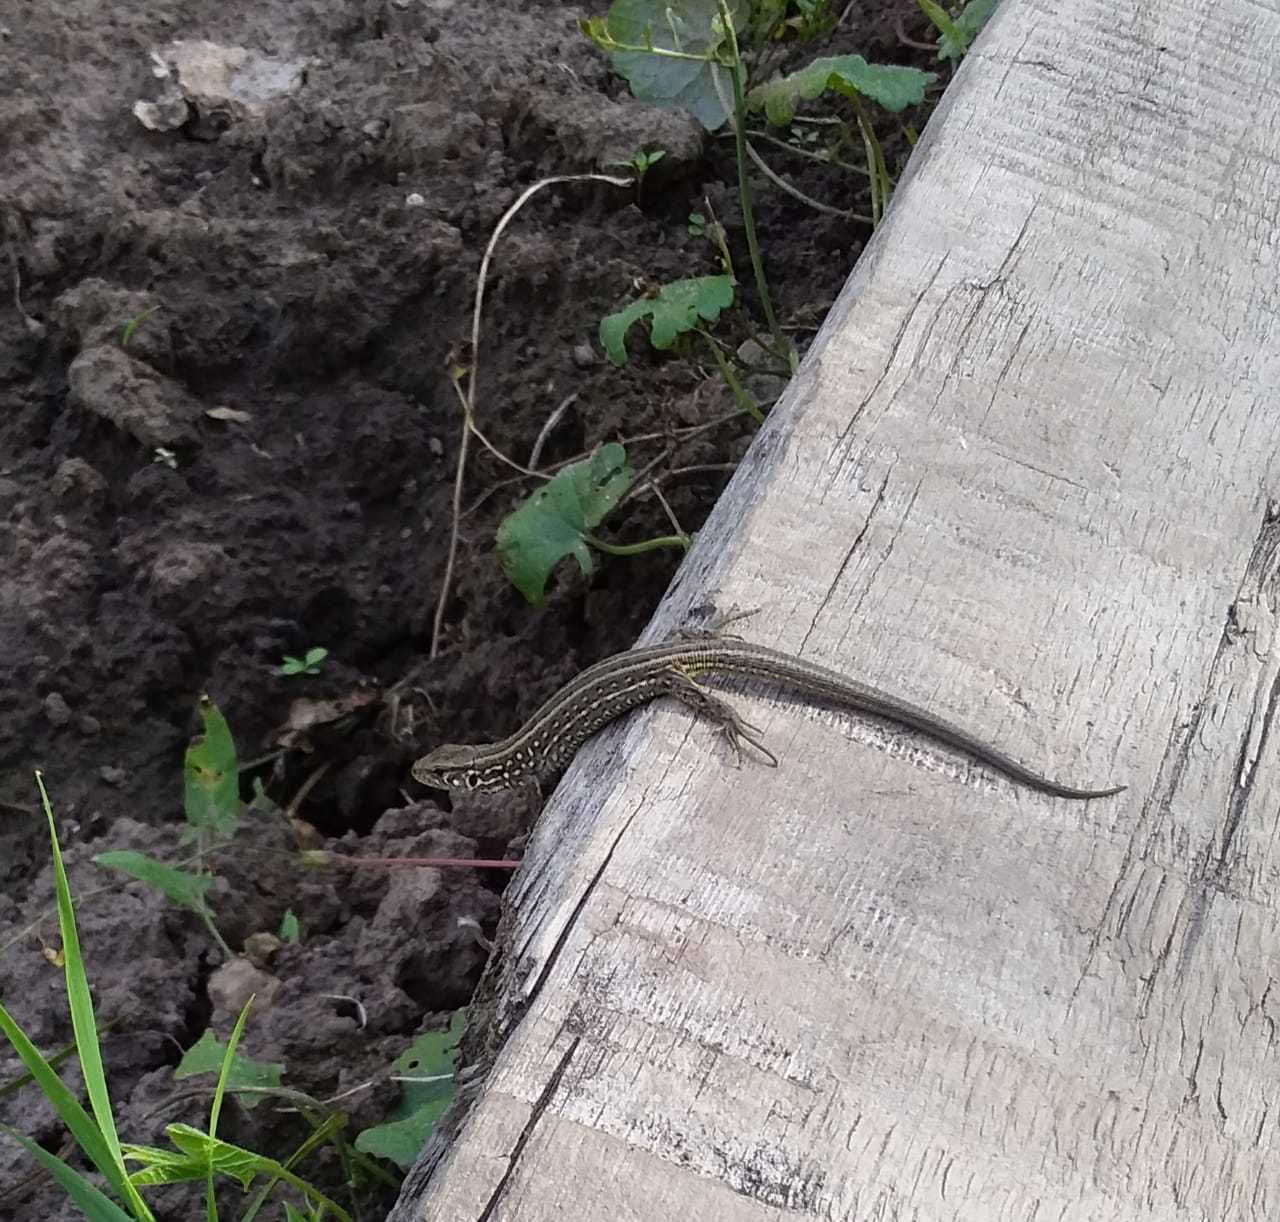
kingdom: Animalia
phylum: Chordata
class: Squamata
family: Lacertidae
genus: Lacerta
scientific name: Lacerta agilis
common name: Sand lizard
